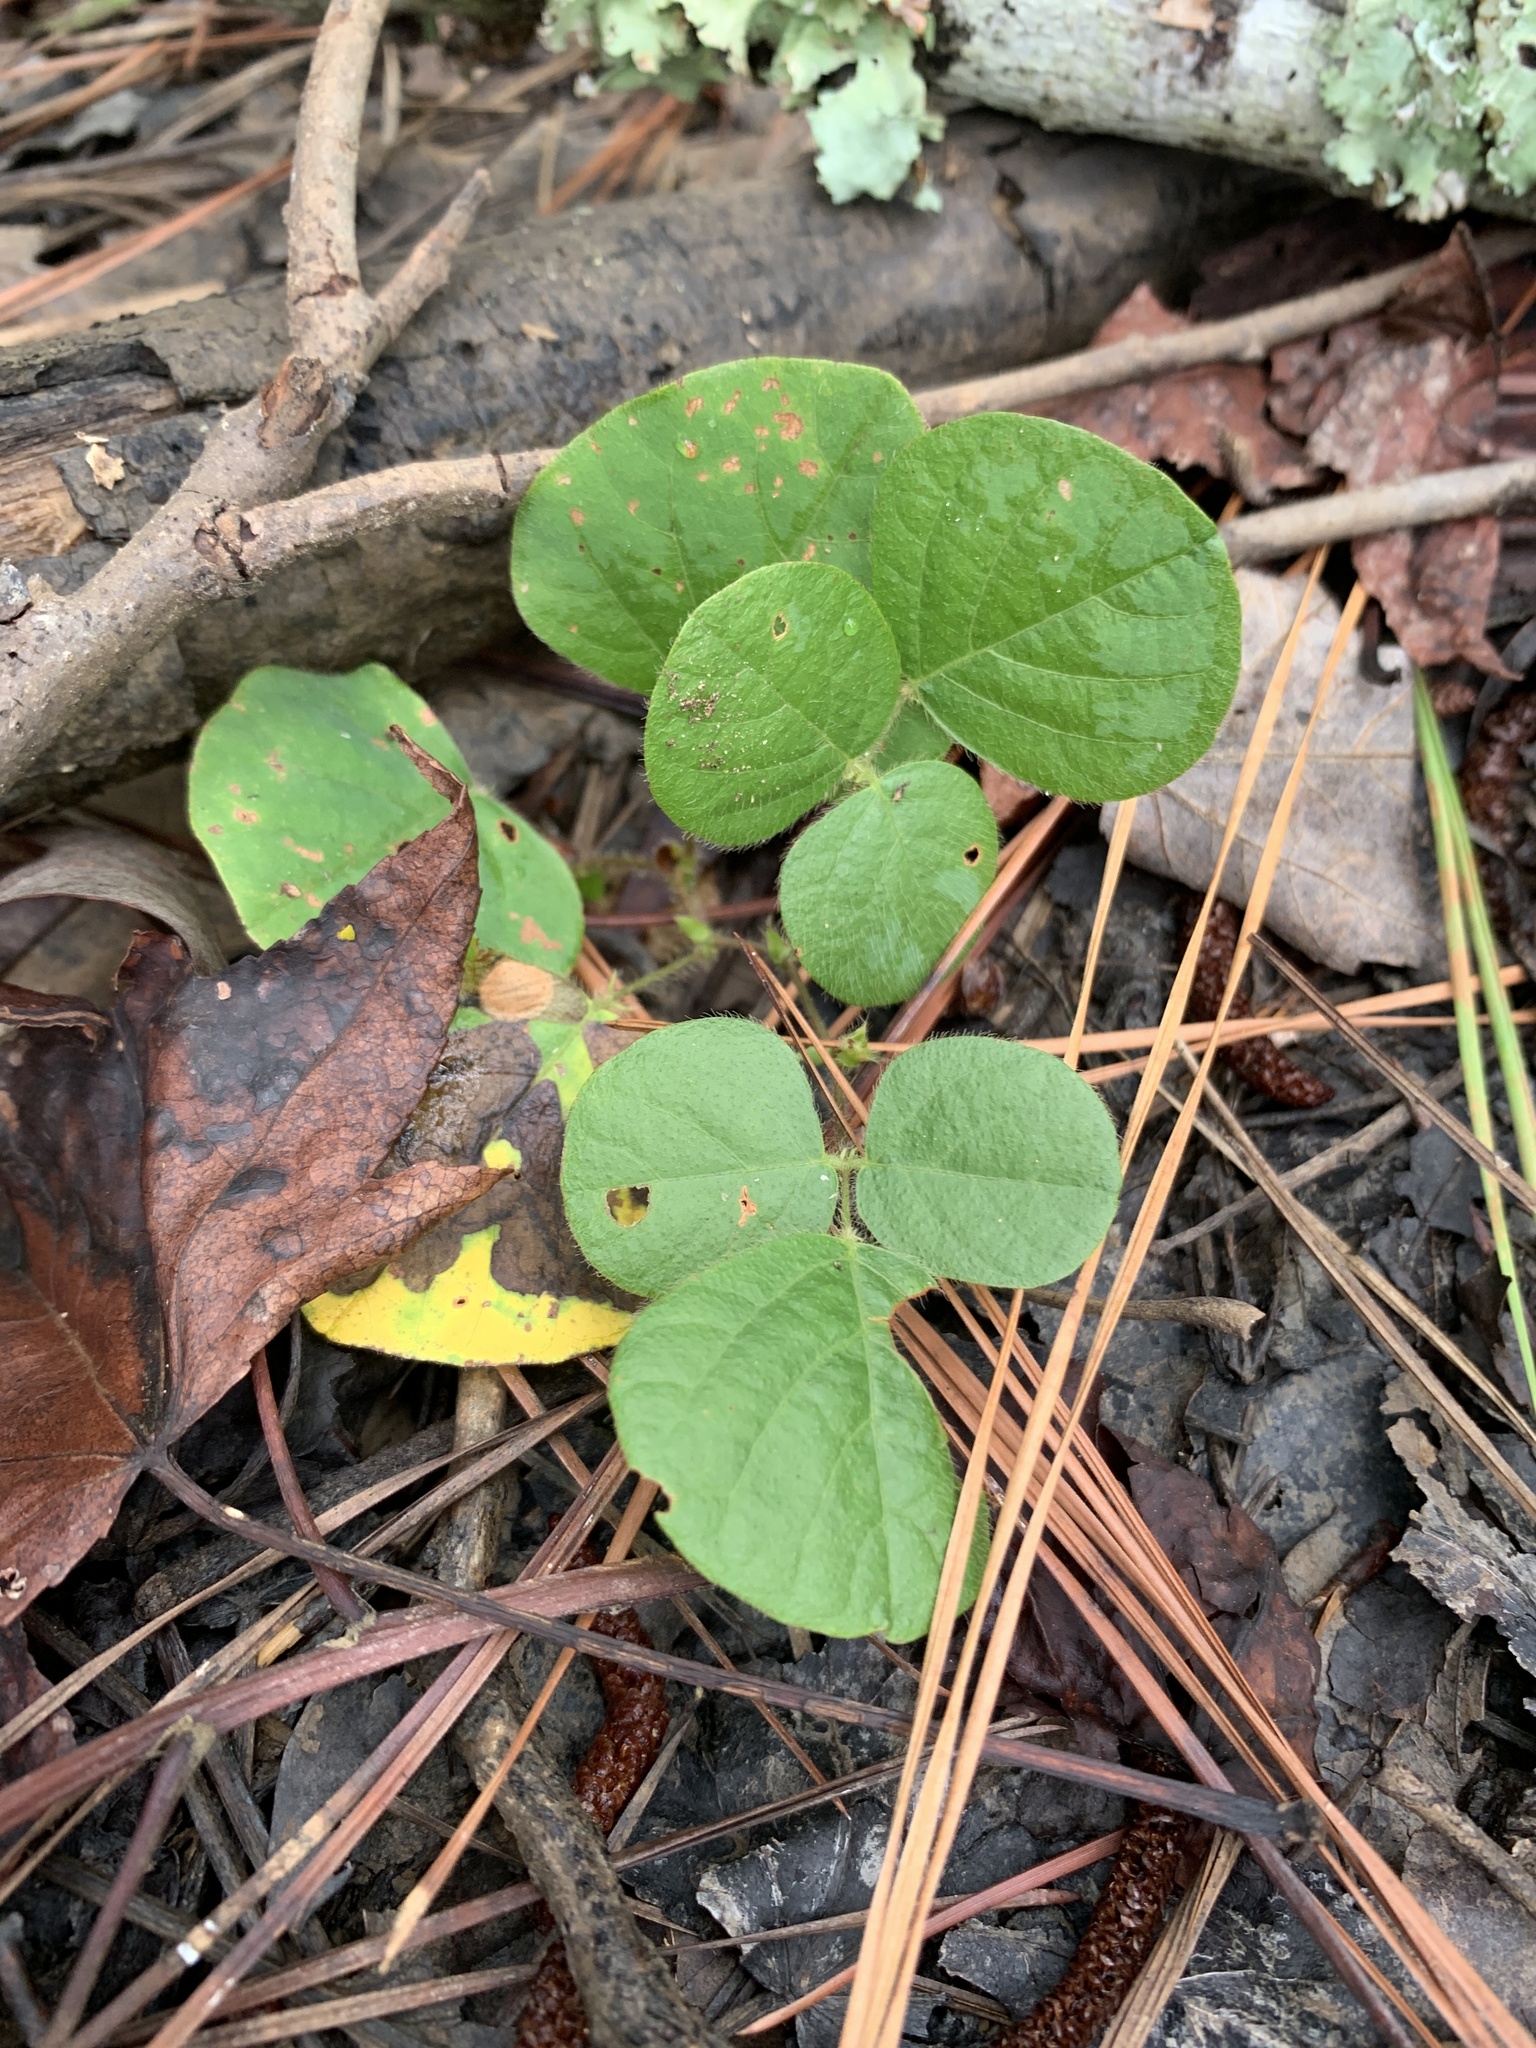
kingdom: Plantae
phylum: Tracheophyta
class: Magnoliopsida
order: Fabales
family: Fabaceae
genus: Desmodium
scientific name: Desmodium rotundifolium
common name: Dollarleaf
